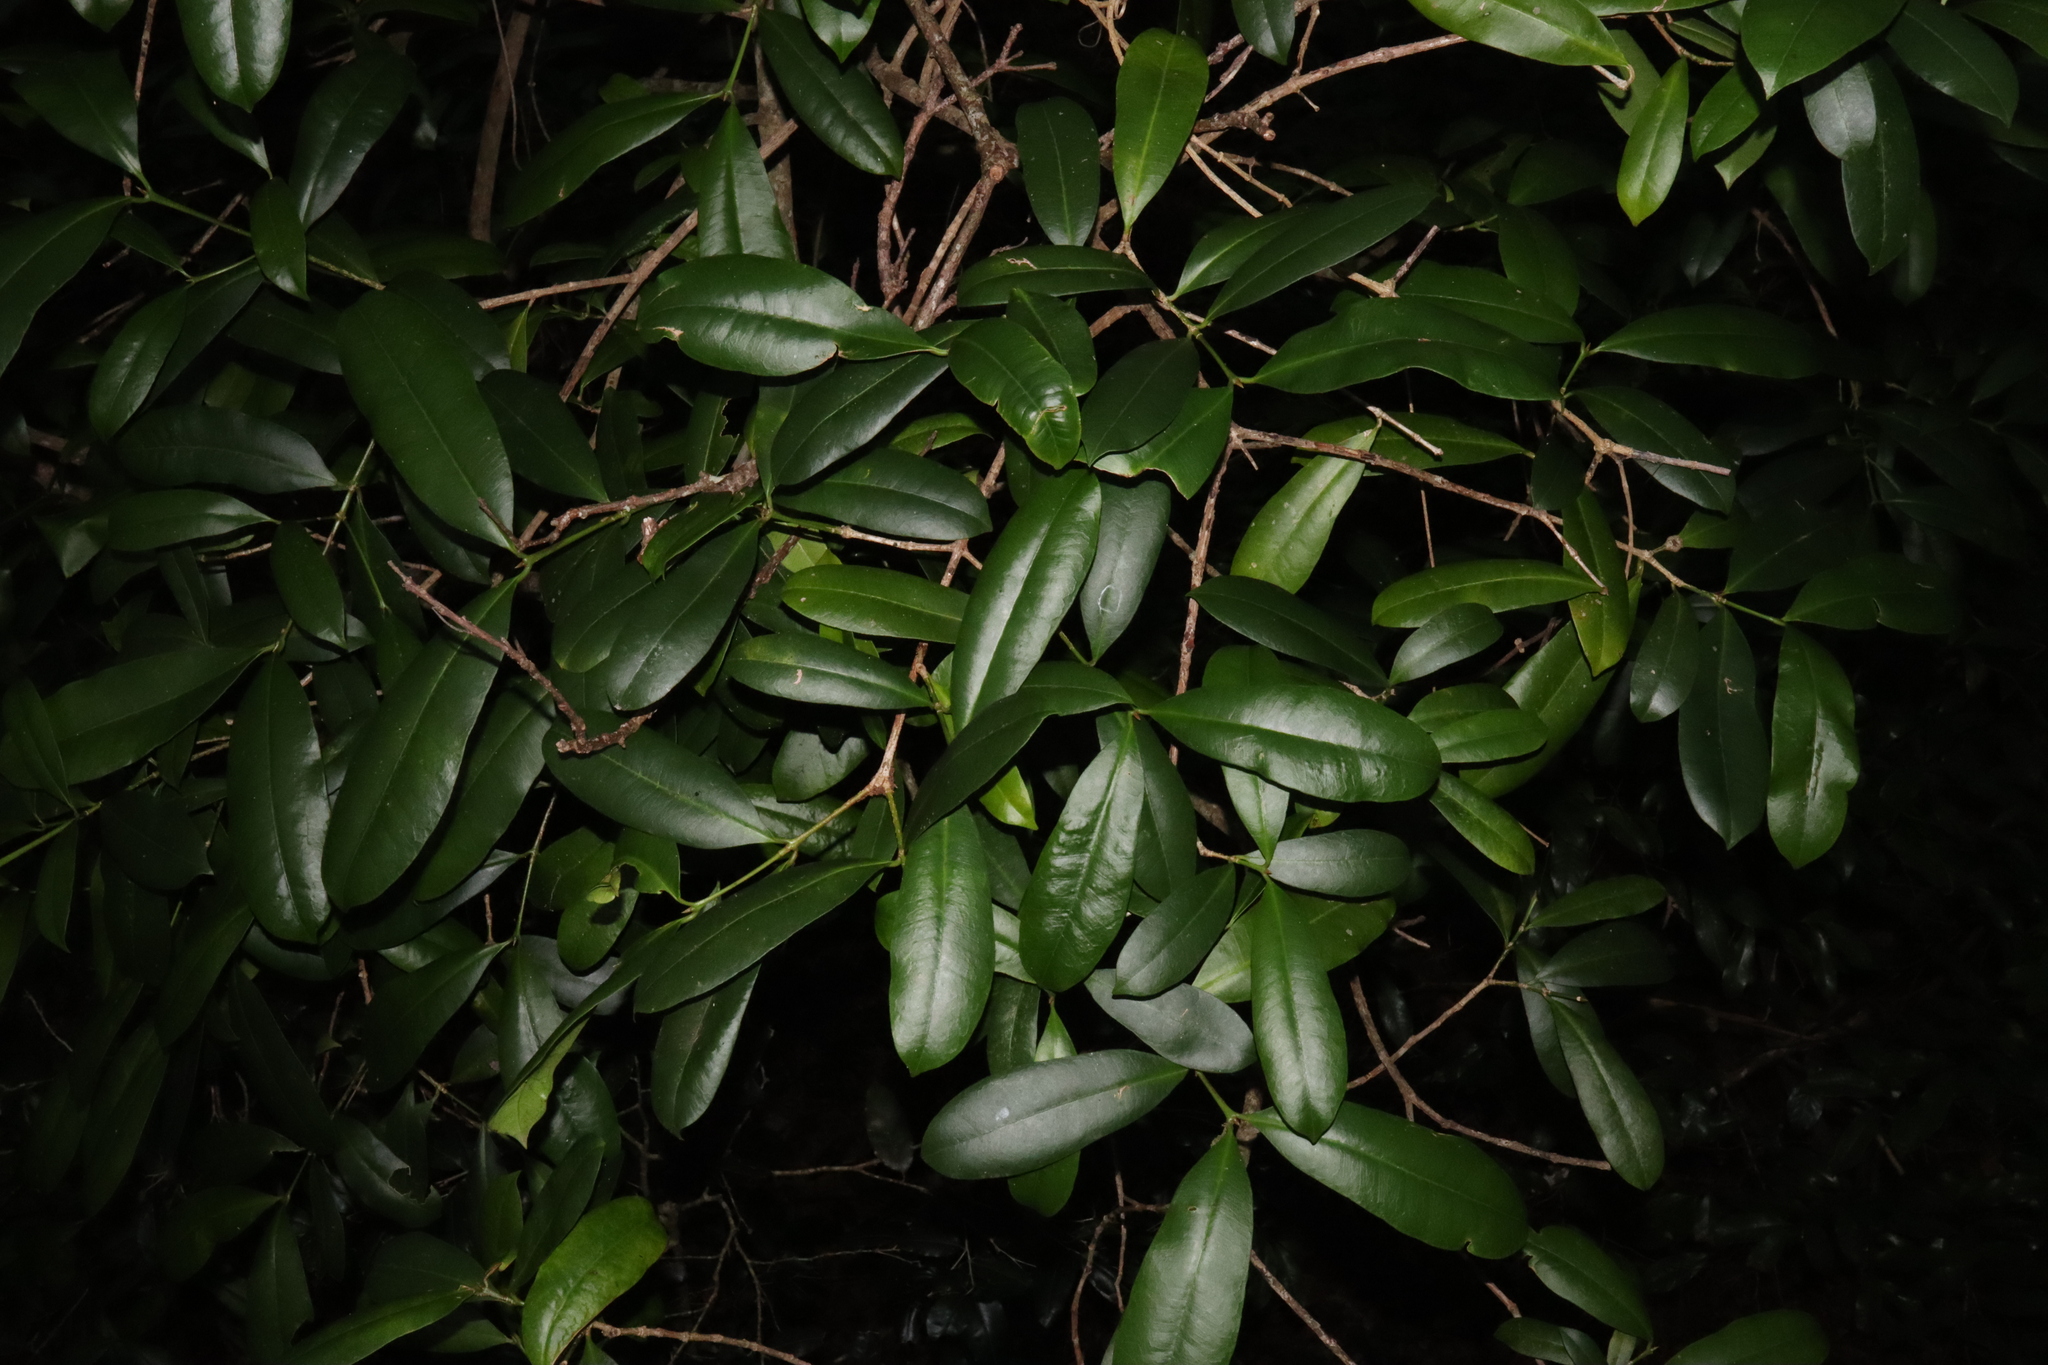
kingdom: Plantae
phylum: Tracheophyta
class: Magnoliopsida
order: Malpighiales
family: Euphorbiaceae
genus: Baloghia
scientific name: Baloghia inophylla
